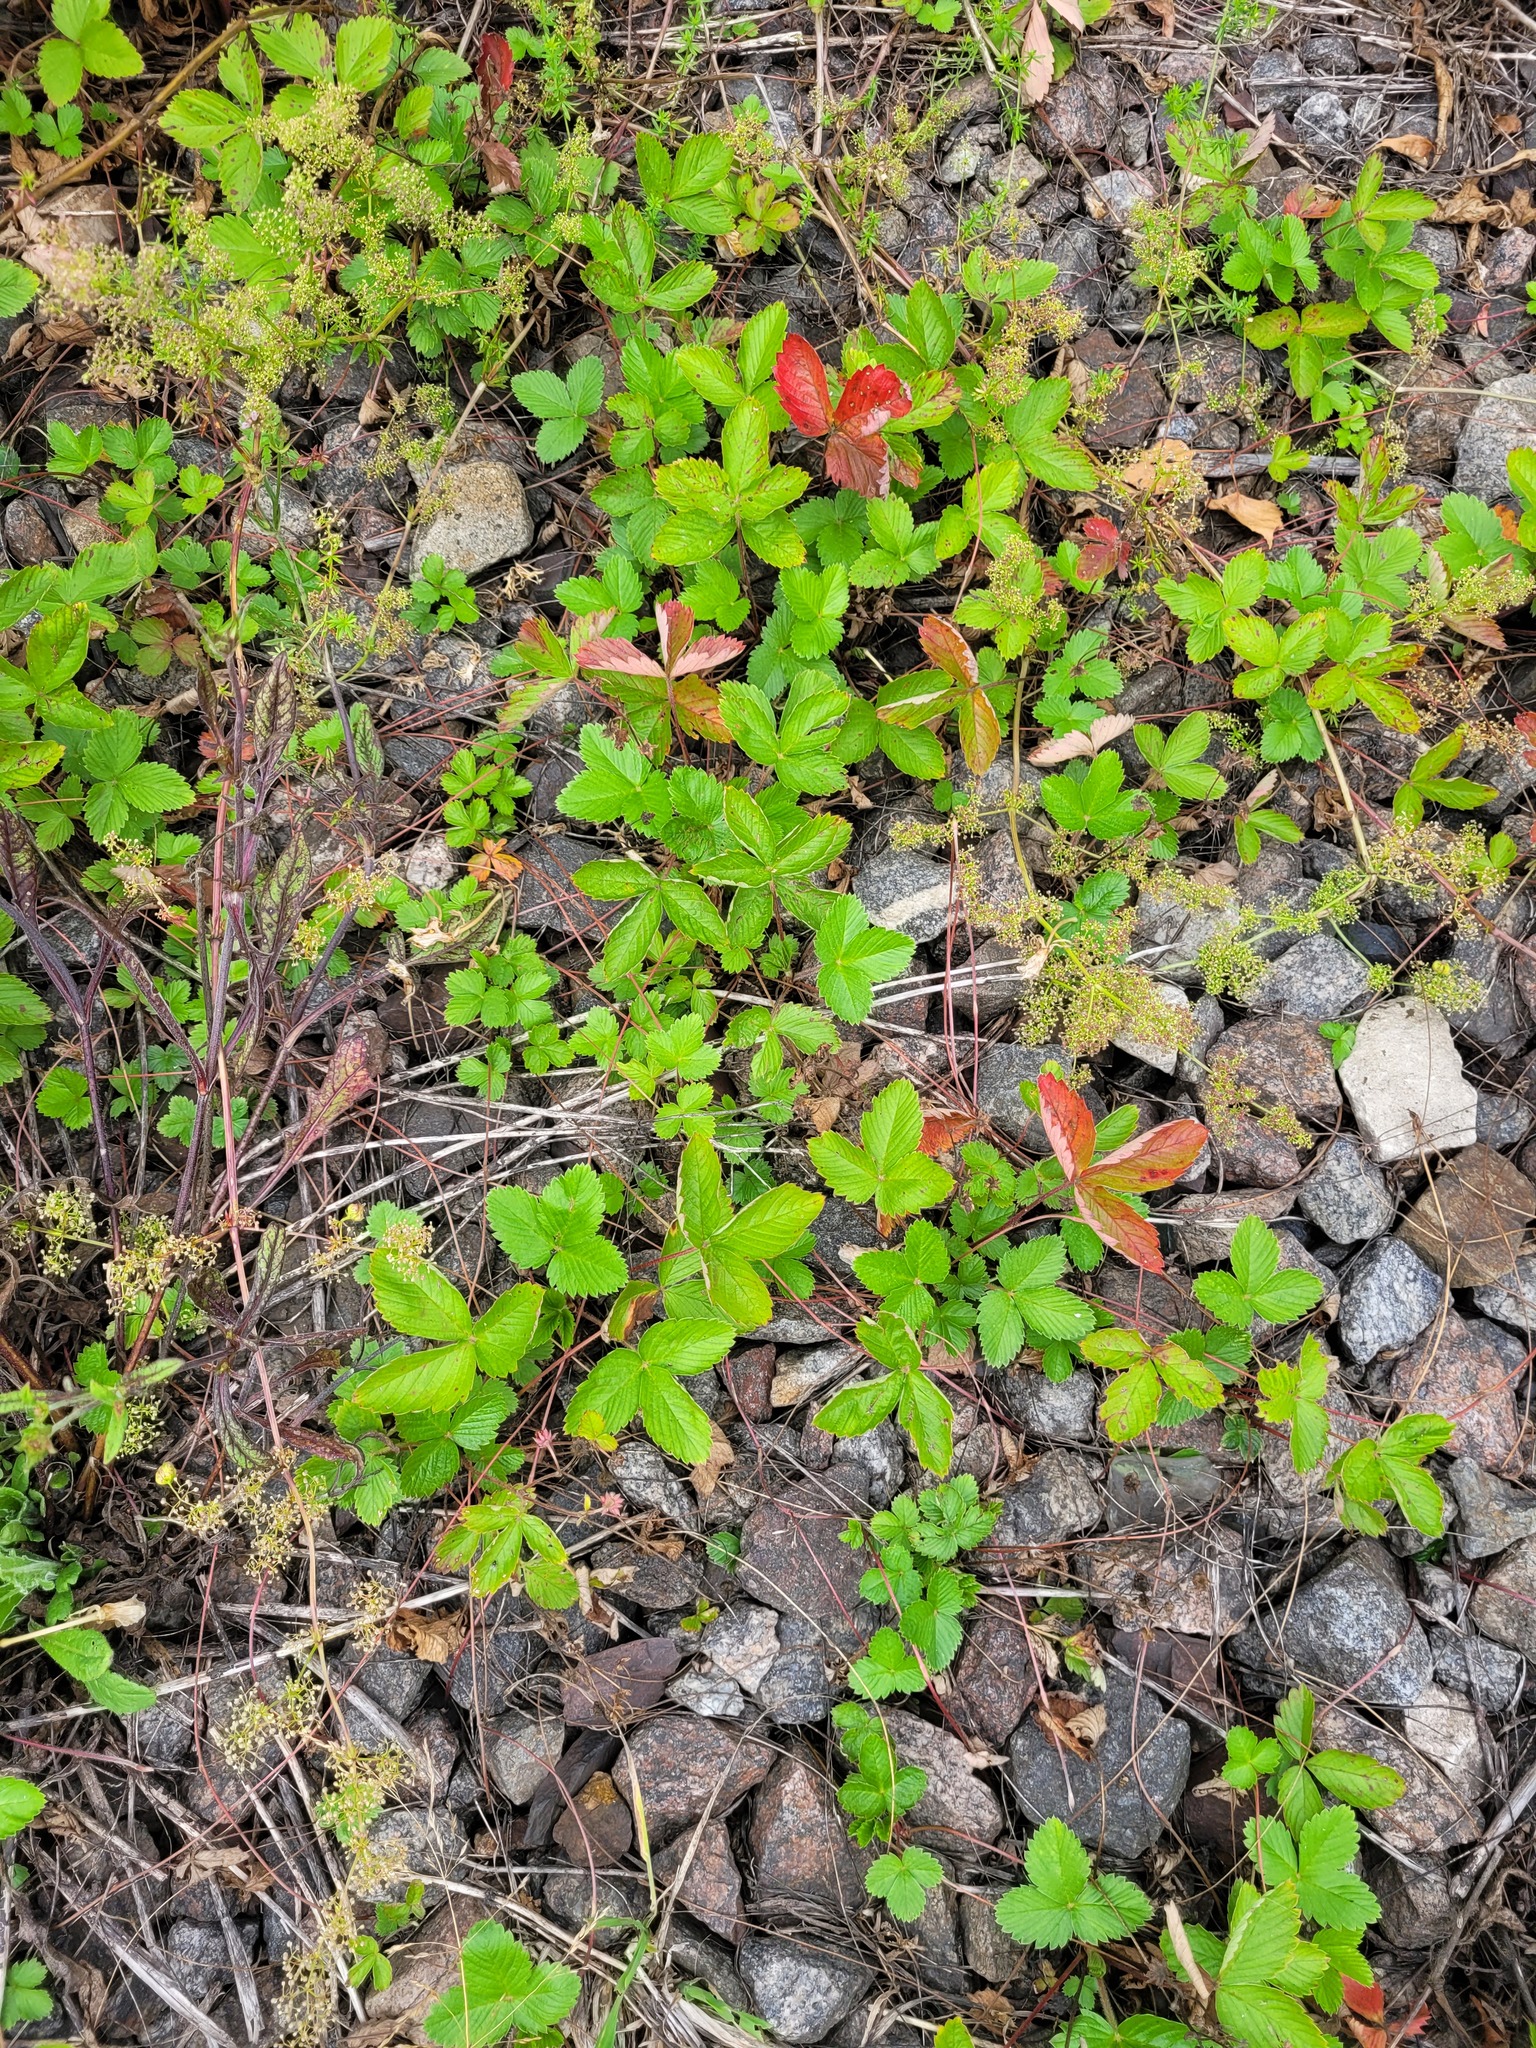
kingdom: Plantae
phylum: Tracheophyta
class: Magnoliopsida
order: Rosales
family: Rosaceae
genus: Fragaria
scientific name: Fragaria viridis
